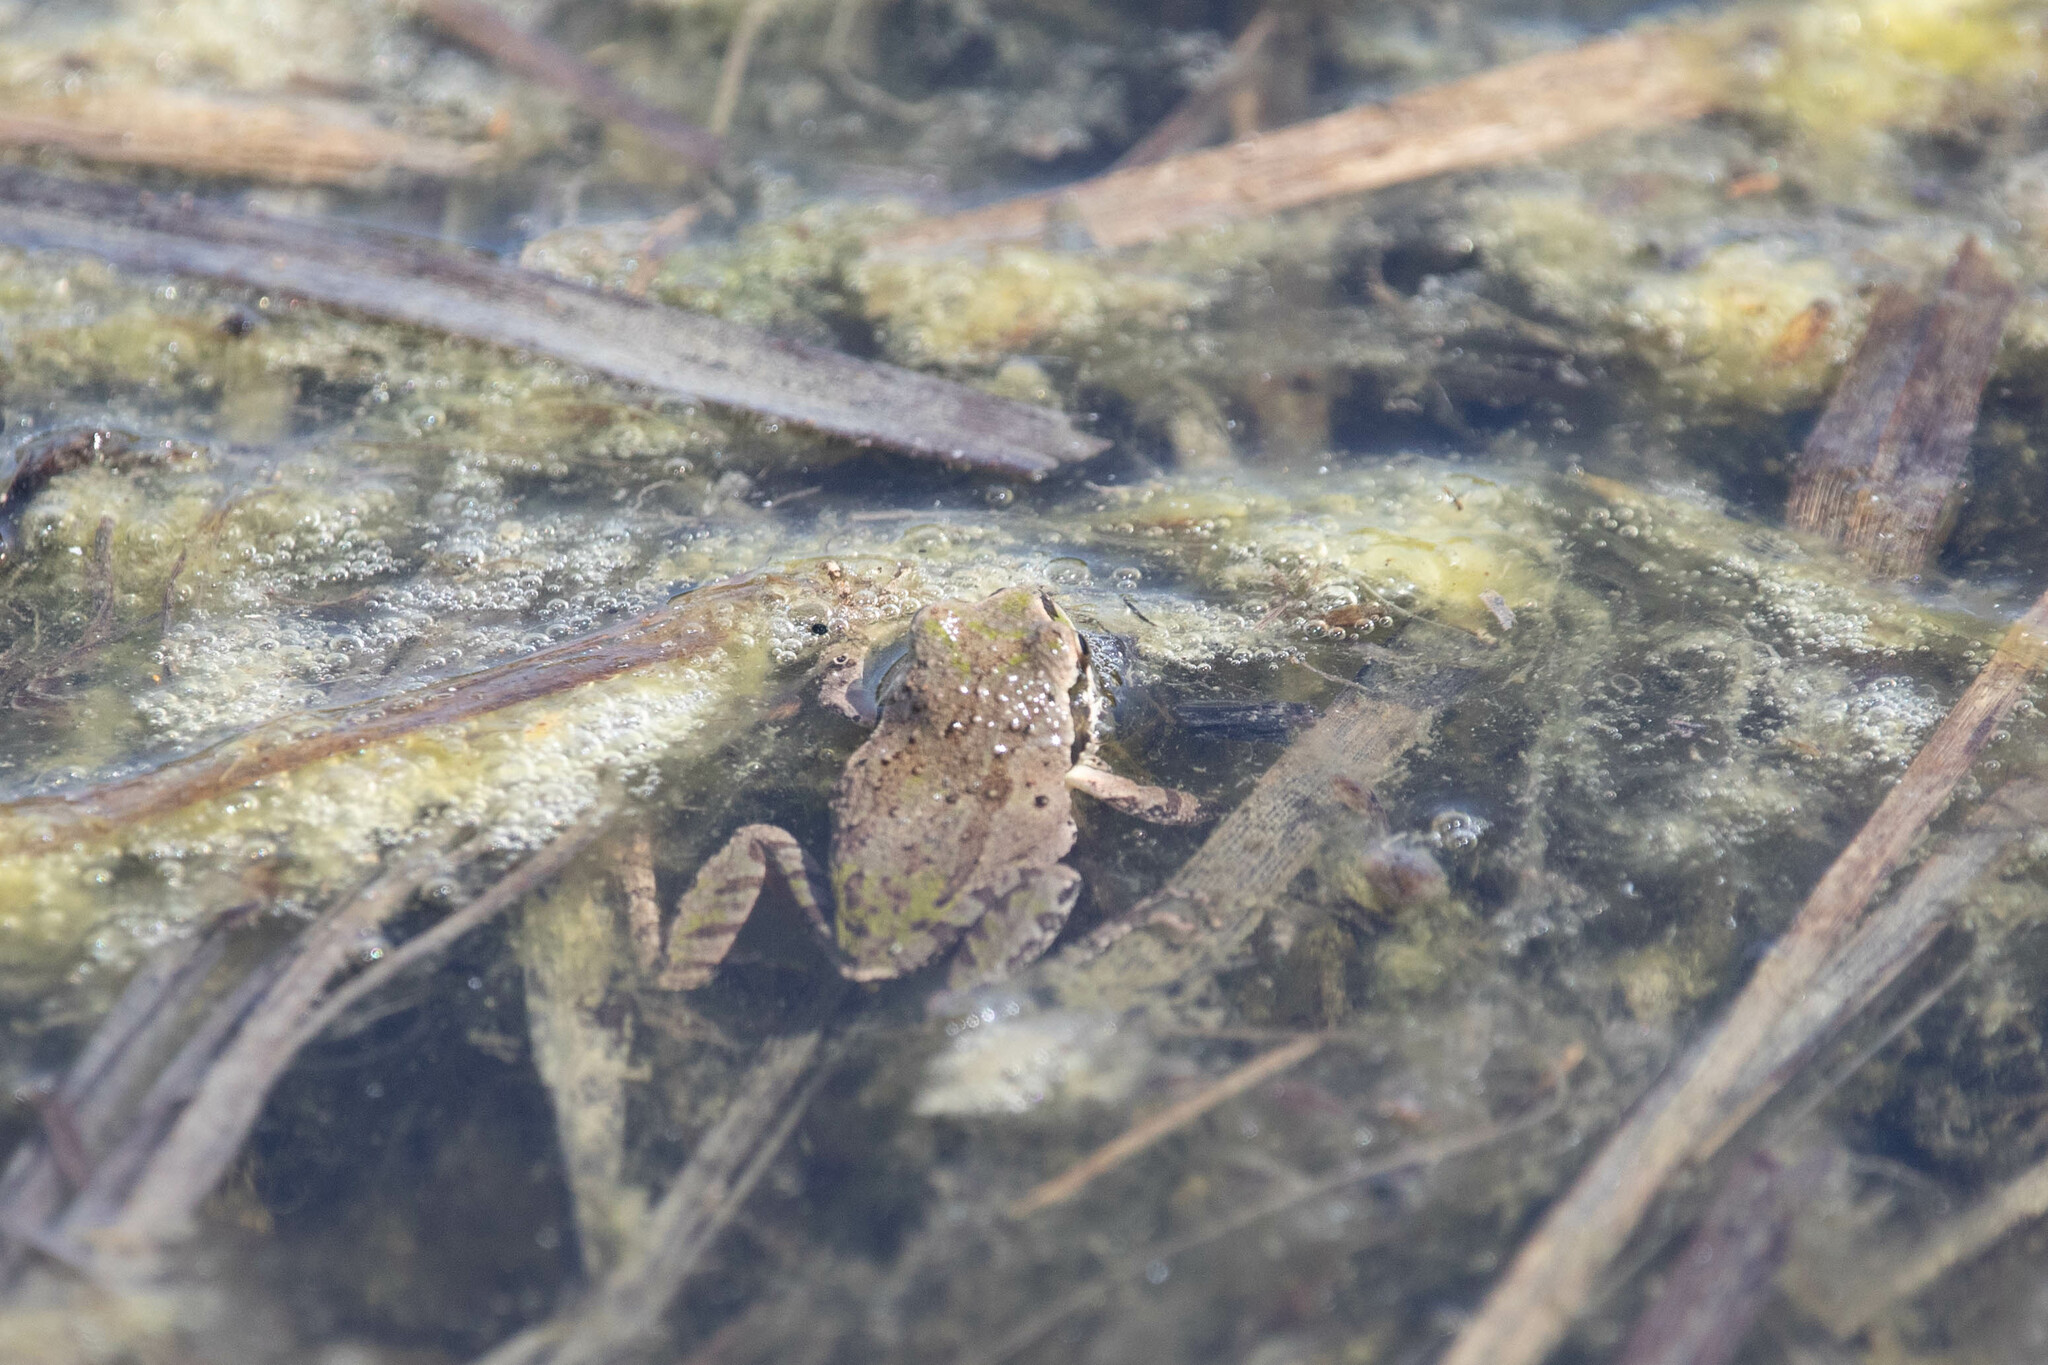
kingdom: Animalia
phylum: Chordata
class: Amphibia
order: Anura
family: Hylidae
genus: Pseudacris
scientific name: Pseudacris regilla
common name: Pacific chorus frog
